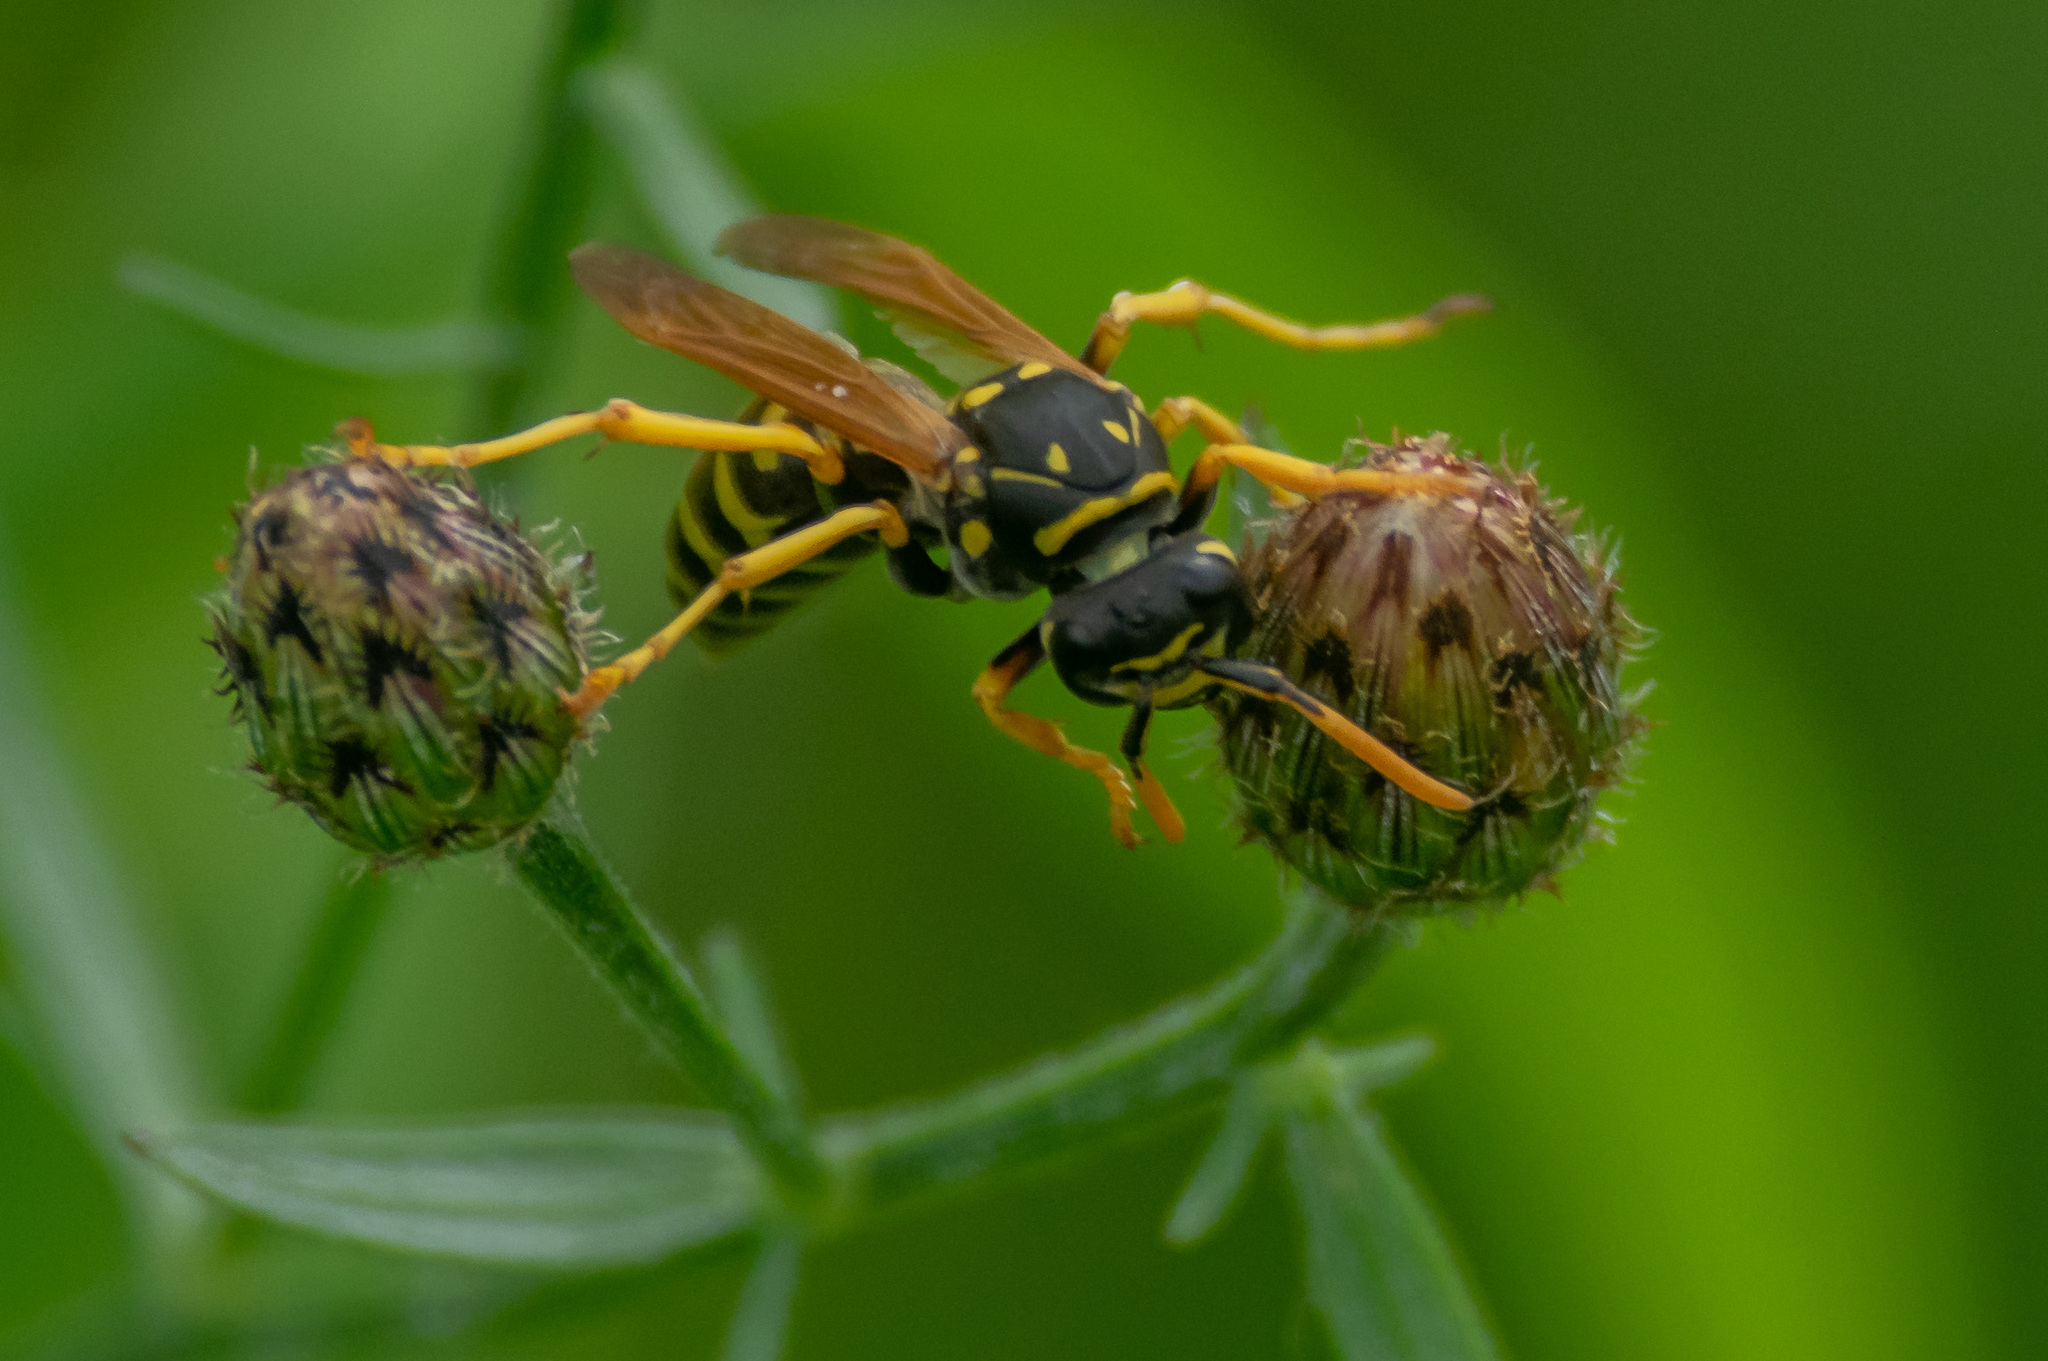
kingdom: Animalia
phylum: Arthropoda
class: Insecta
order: Hymenoptera
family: Eumenidae
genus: Polistes
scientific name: Polistes dominula
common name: Paper wasp
